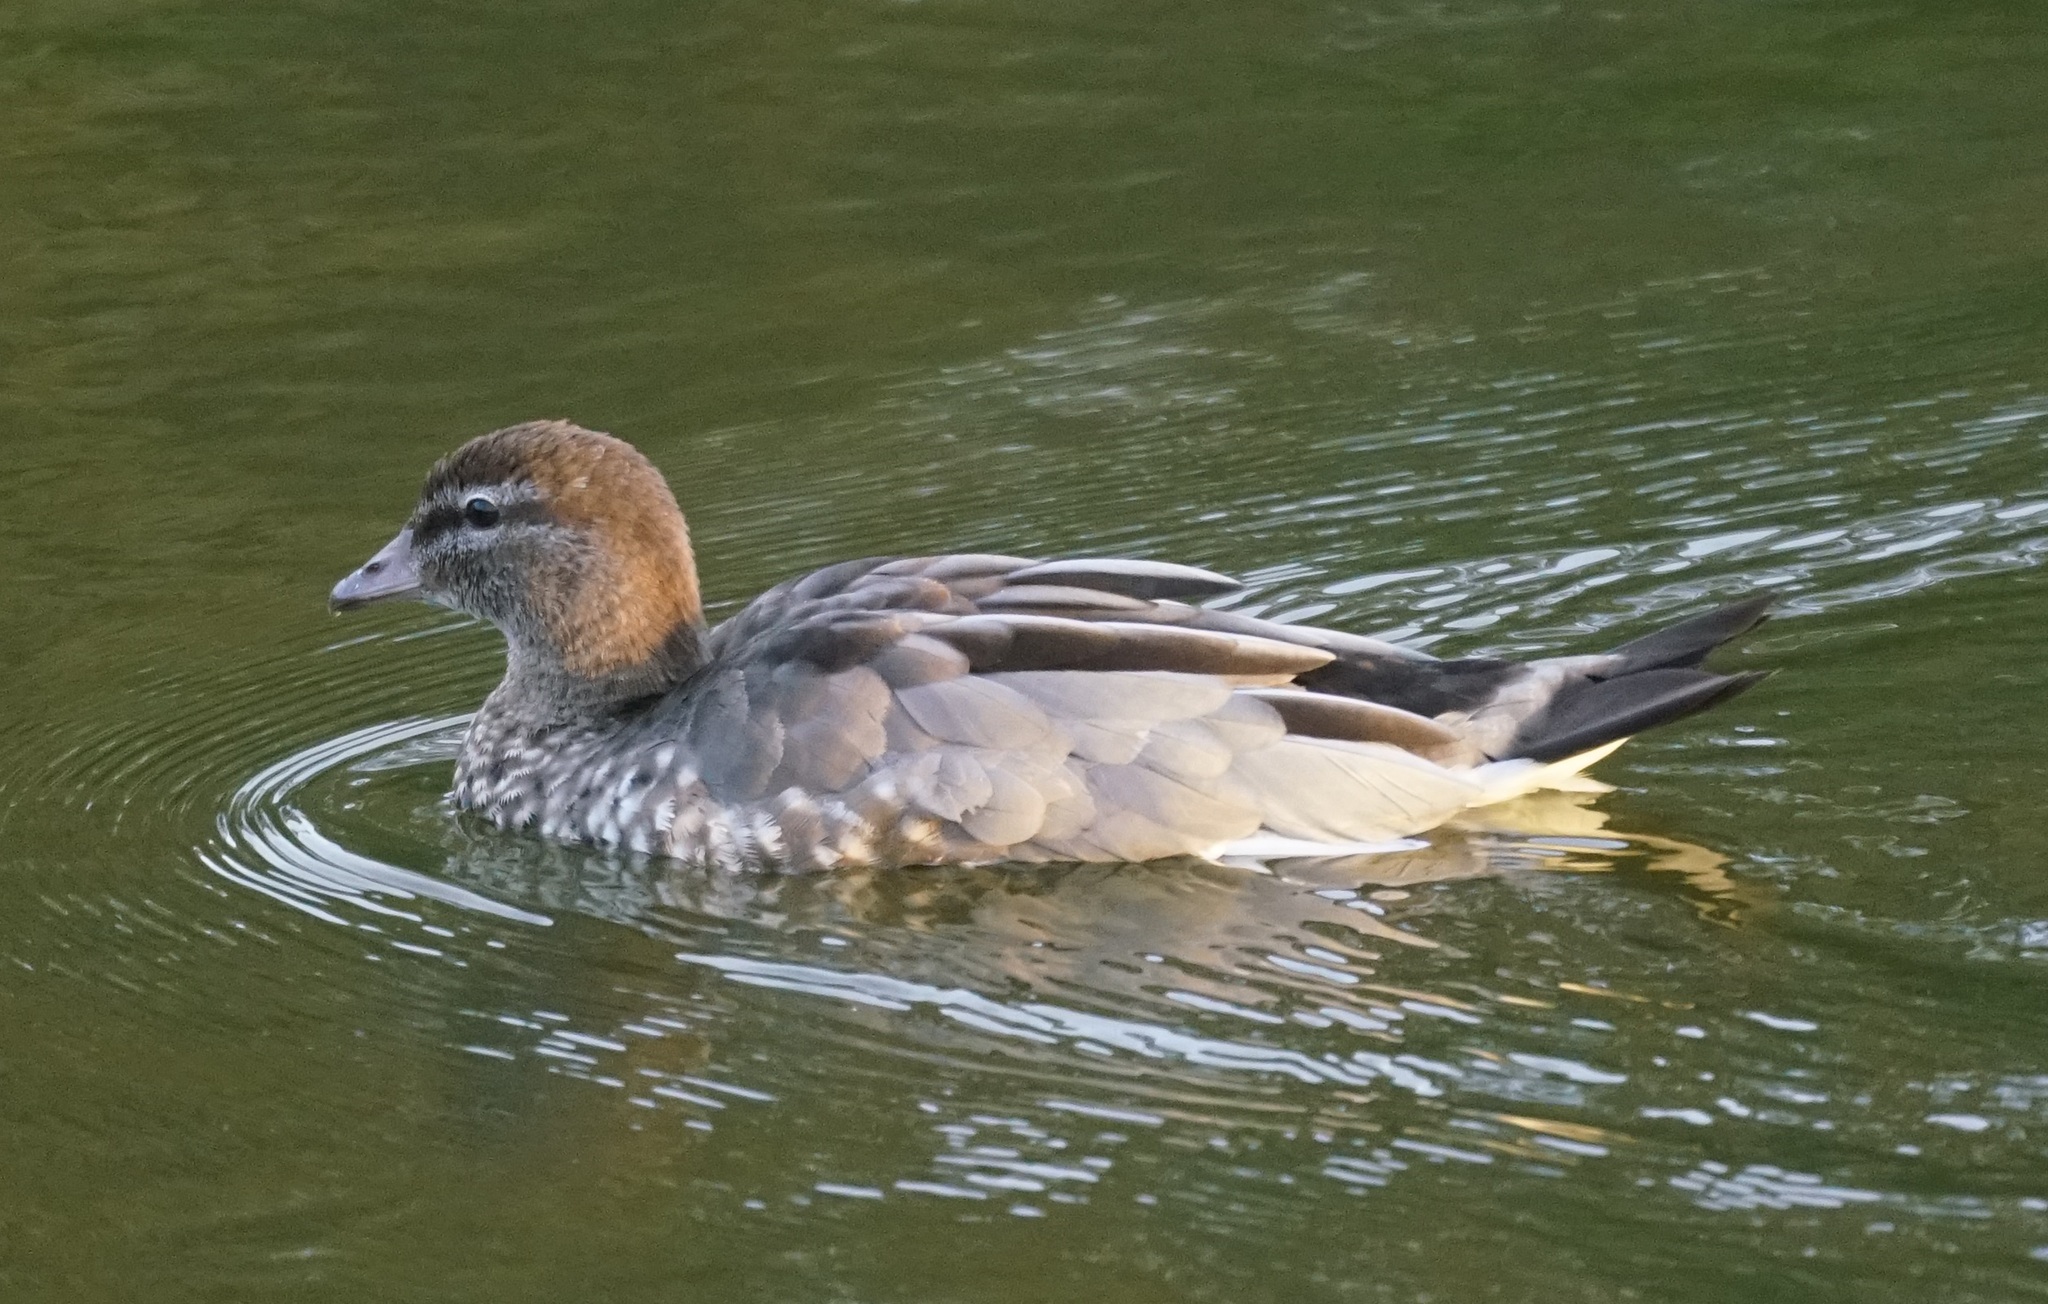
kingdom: Animalia
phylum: Chordata
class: Aves
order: Anseriformes
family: Anatidae
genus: Chenonetta
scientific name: Chenonetta jubata
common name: Maned duck
